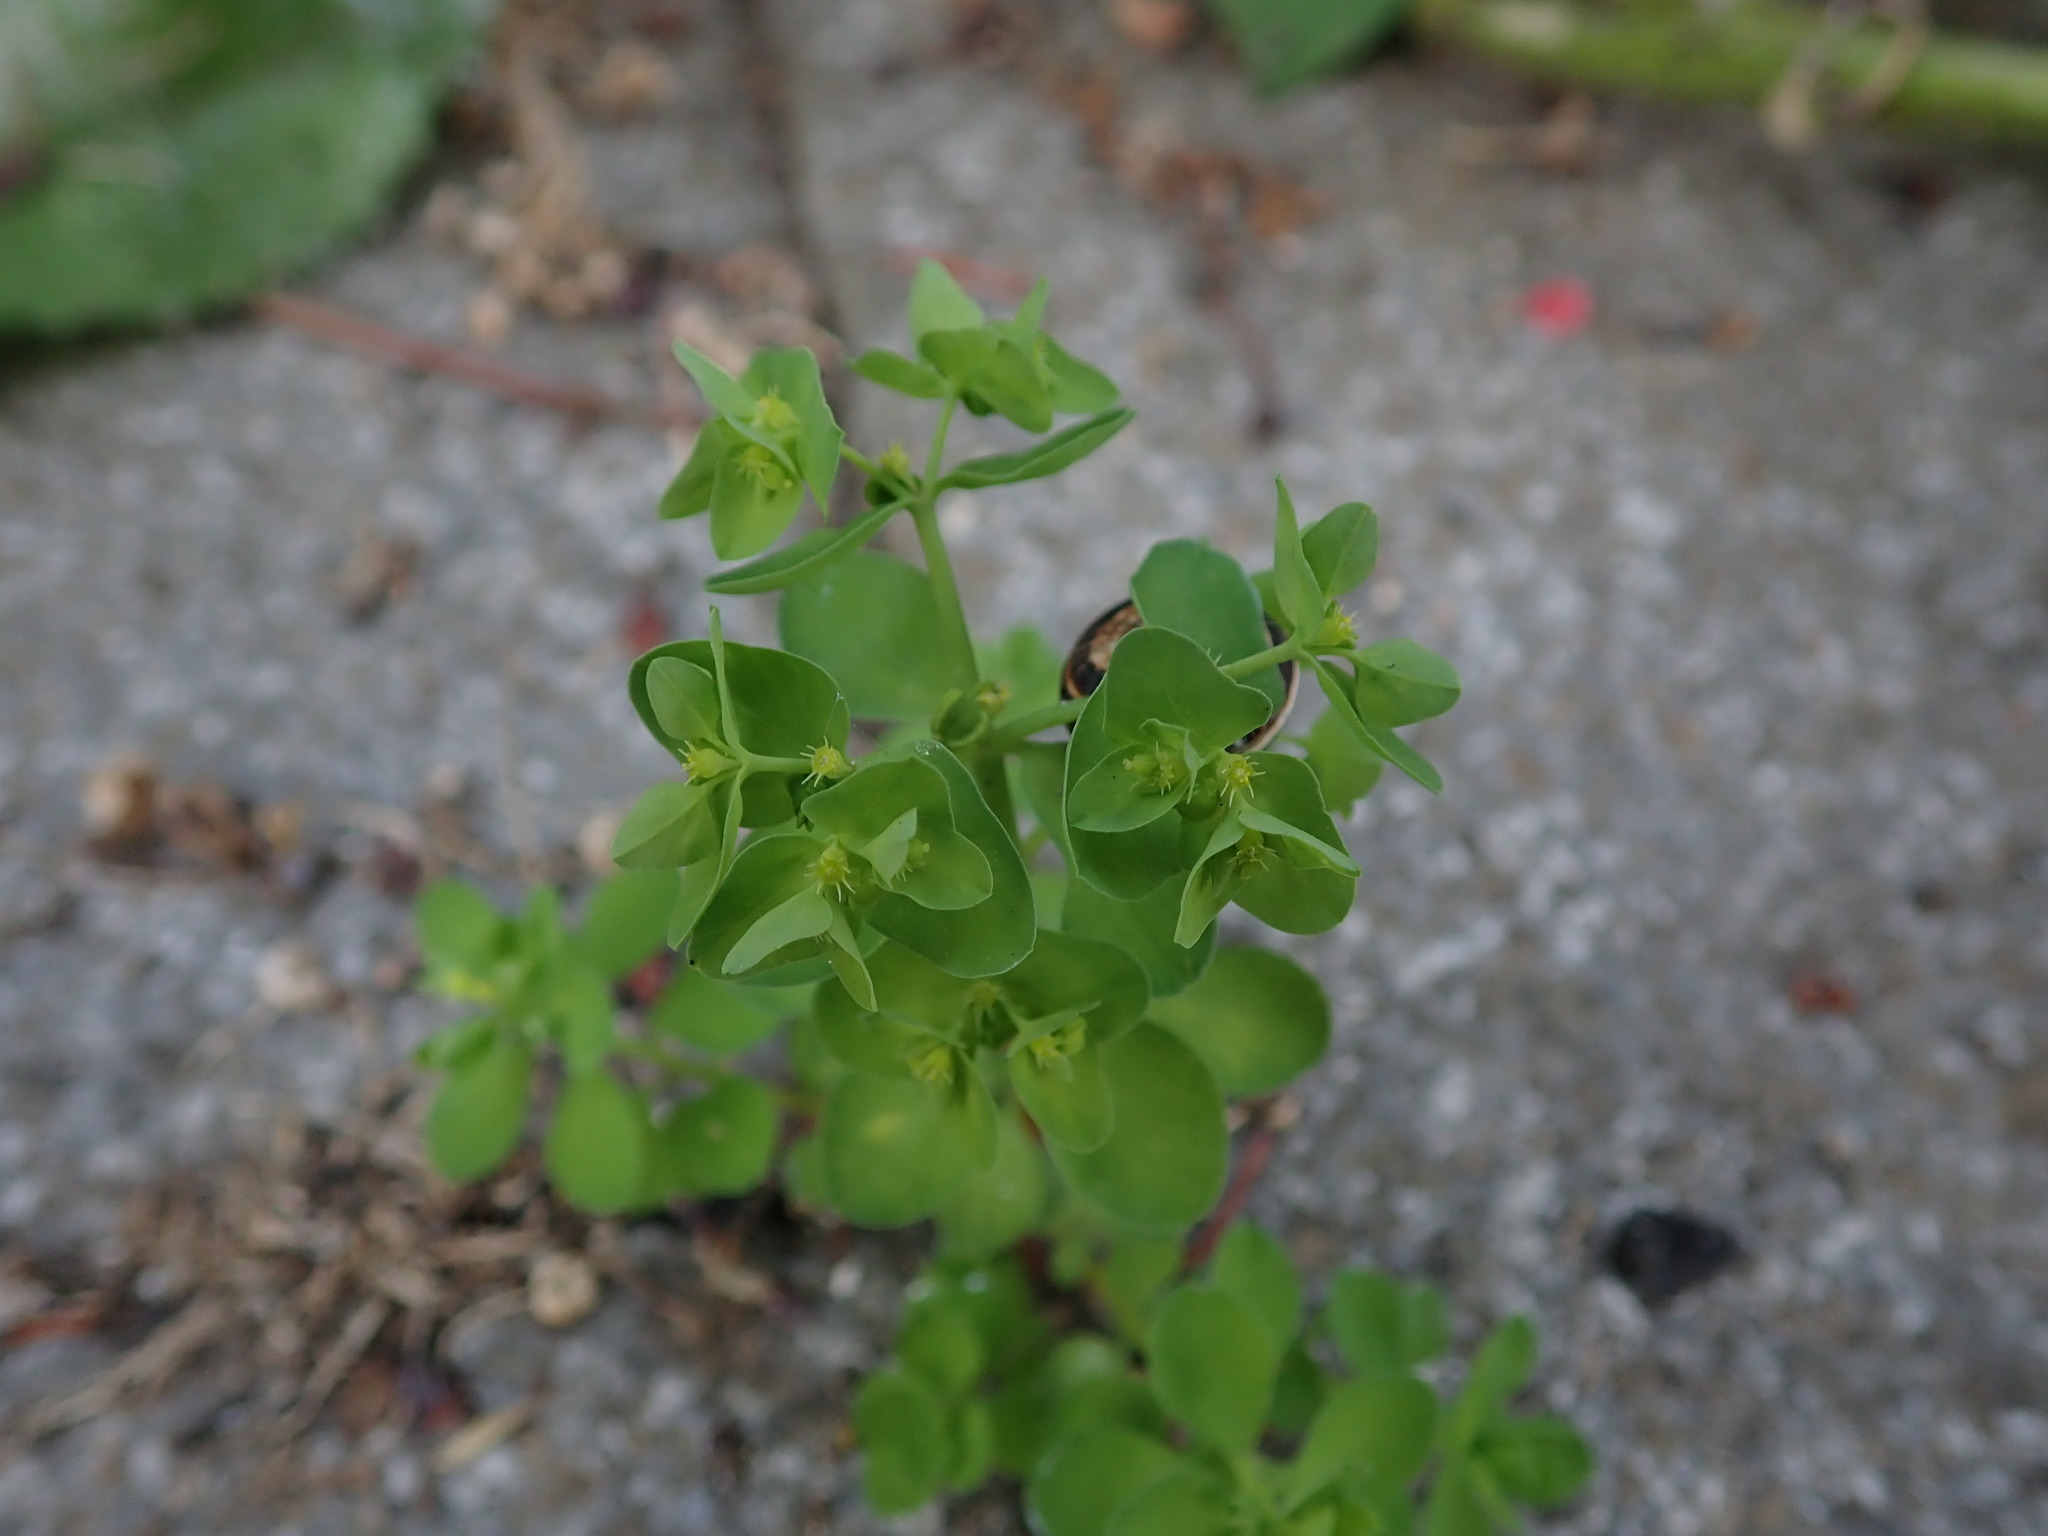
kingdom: Plantae
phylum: Tracheophyta
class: Magnoliopsida
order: Malpighiales
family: Euphorbiaceae
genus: Euphorbia
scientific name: Euphorbia peplus
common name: Petty spurge
